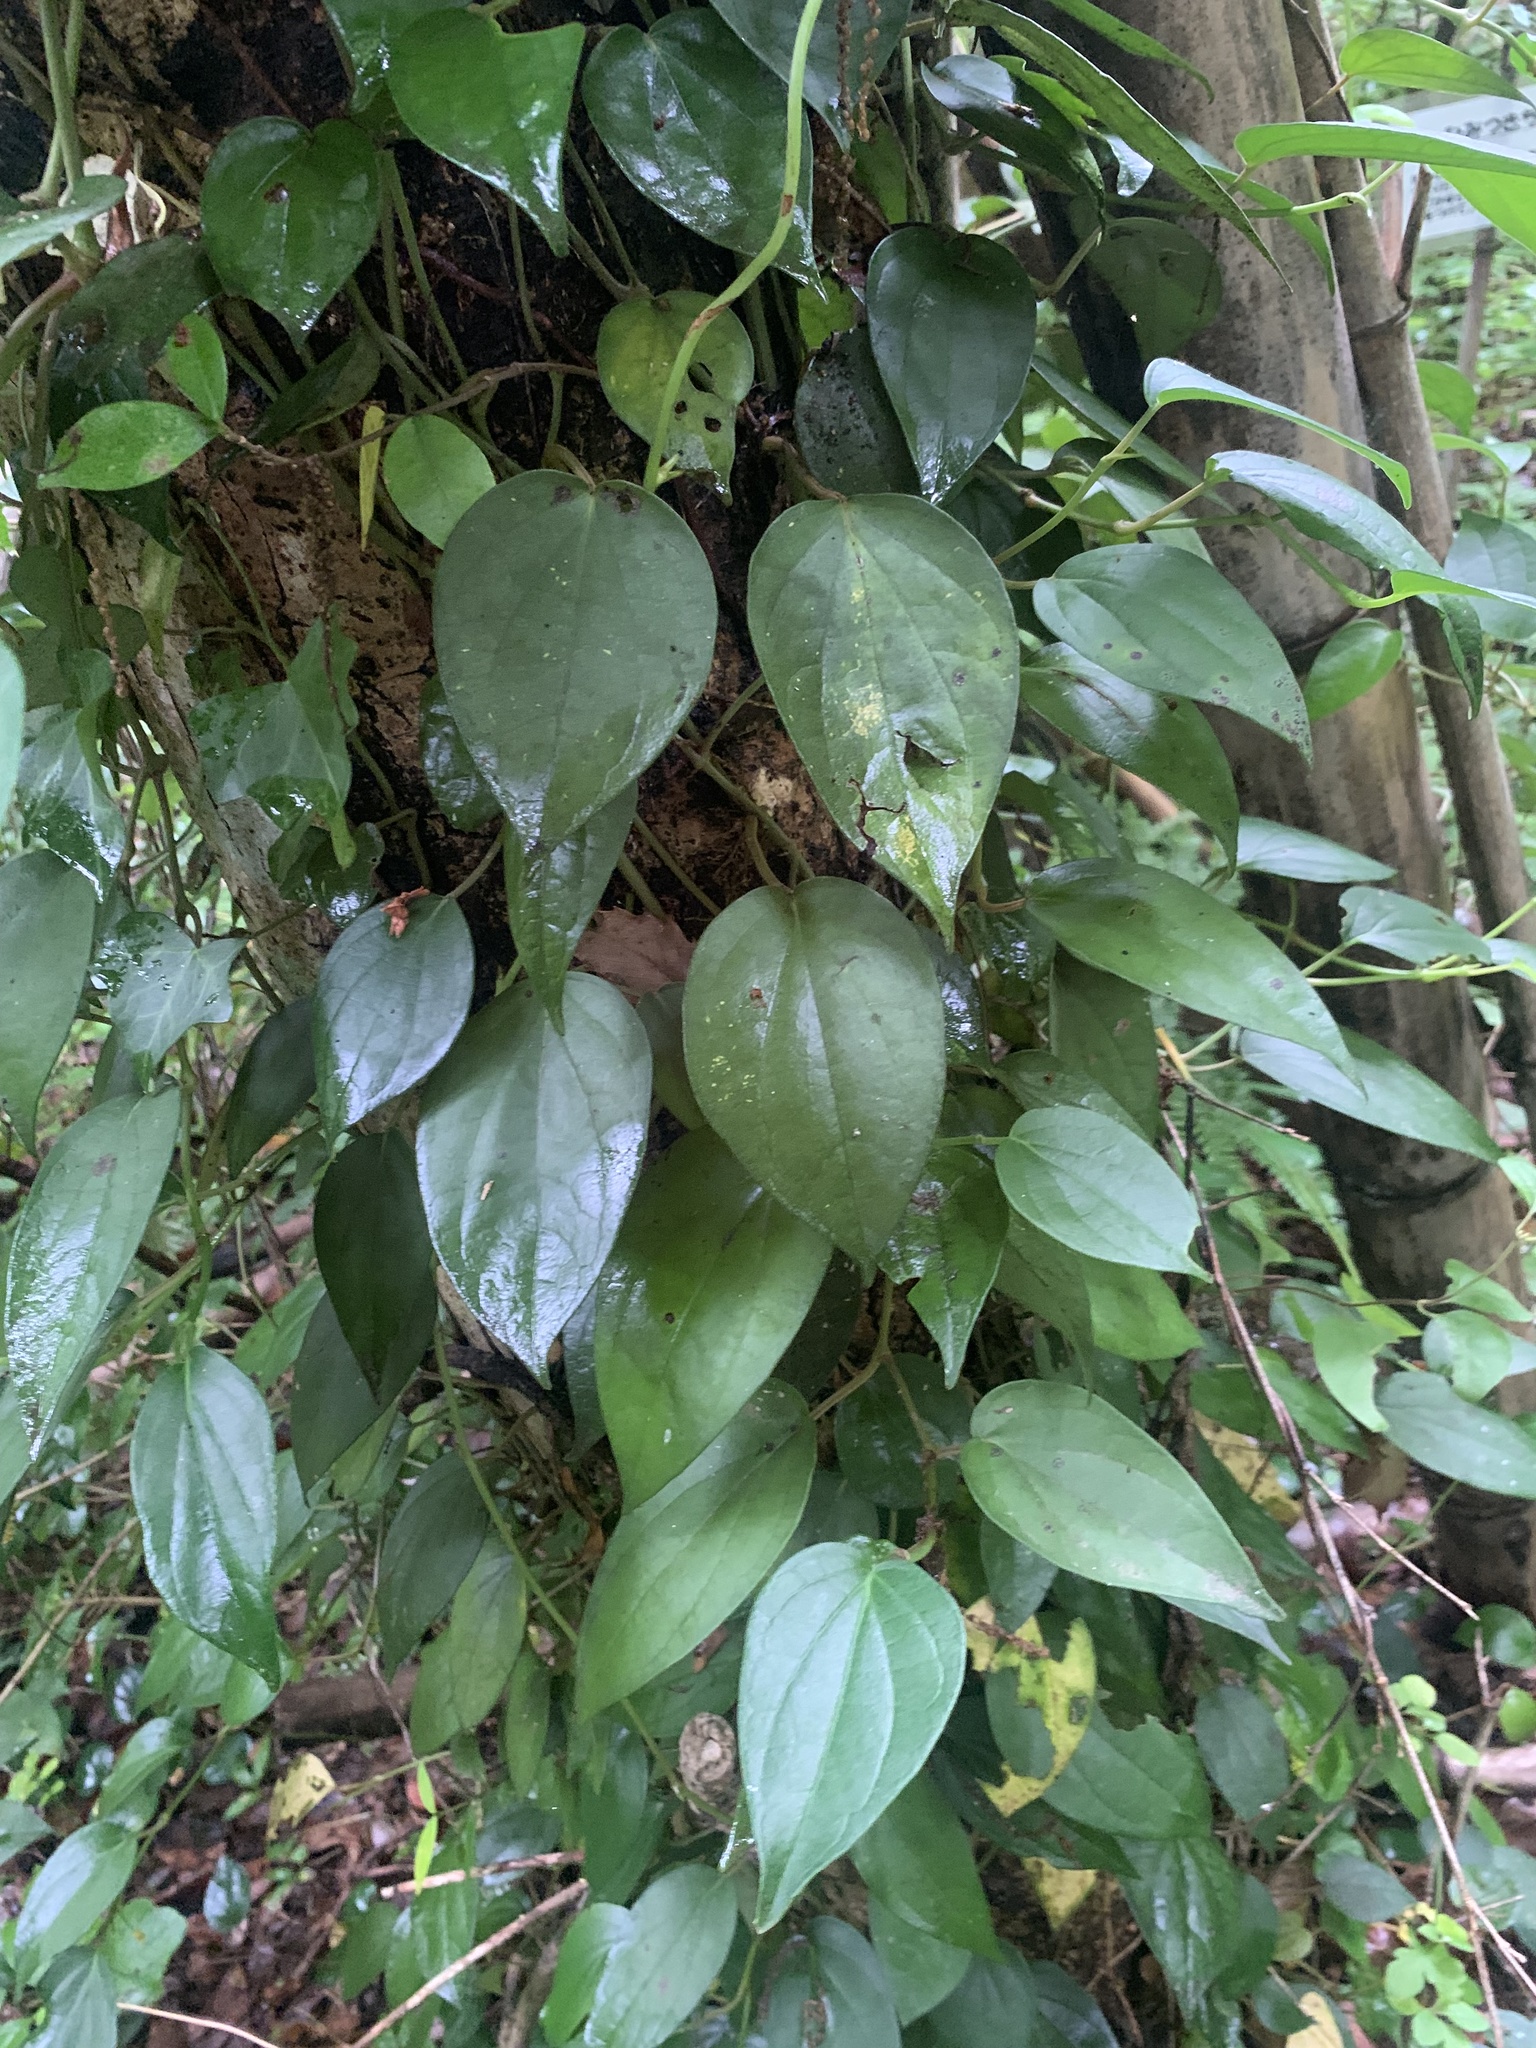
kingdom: Plantae
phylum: Tracheophyta
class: Magnoliopsida
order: Piperales
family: Piperaceae
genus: Piper
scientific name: Piper kadsura
